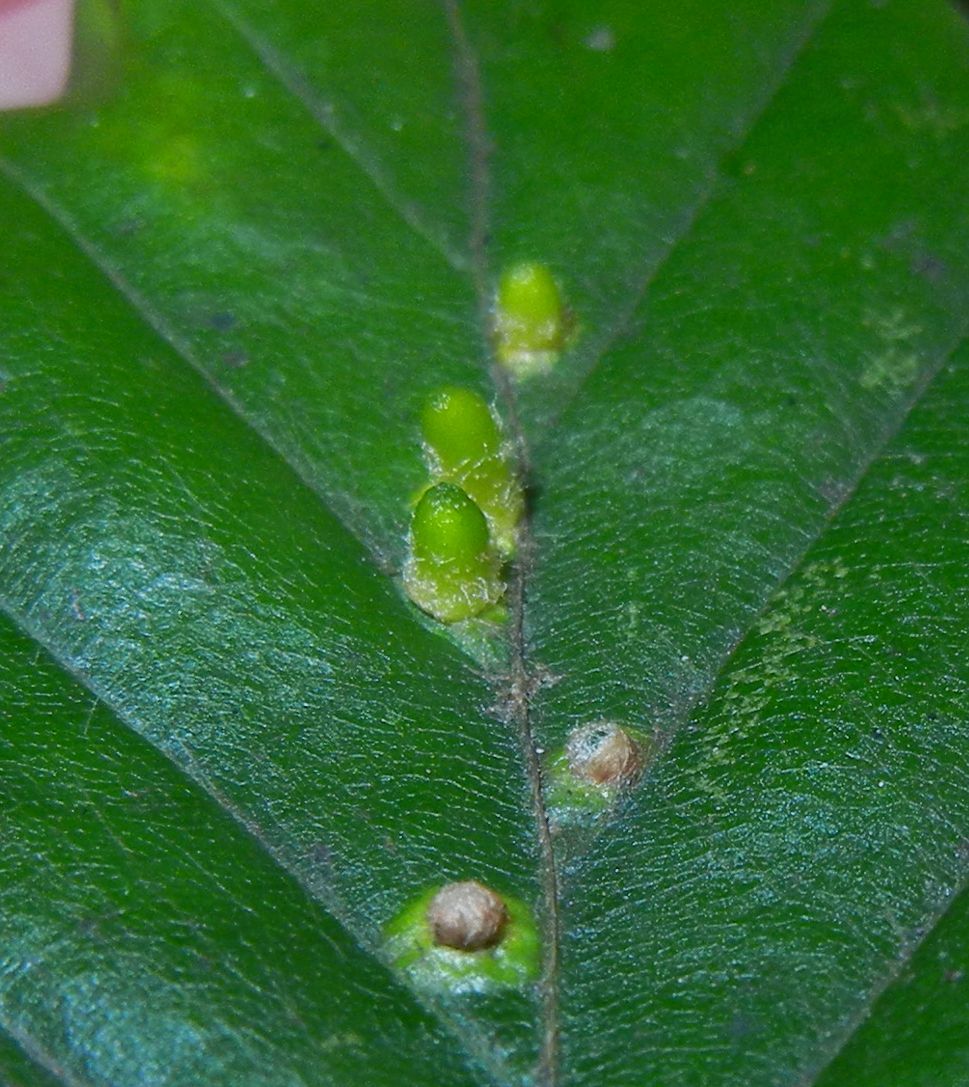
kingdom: Animalia
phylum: Arthropoda
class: Insecta
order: Diptera
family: Cecidomyiidae
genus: Hartigiola
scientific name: Hartigiola annulipes
